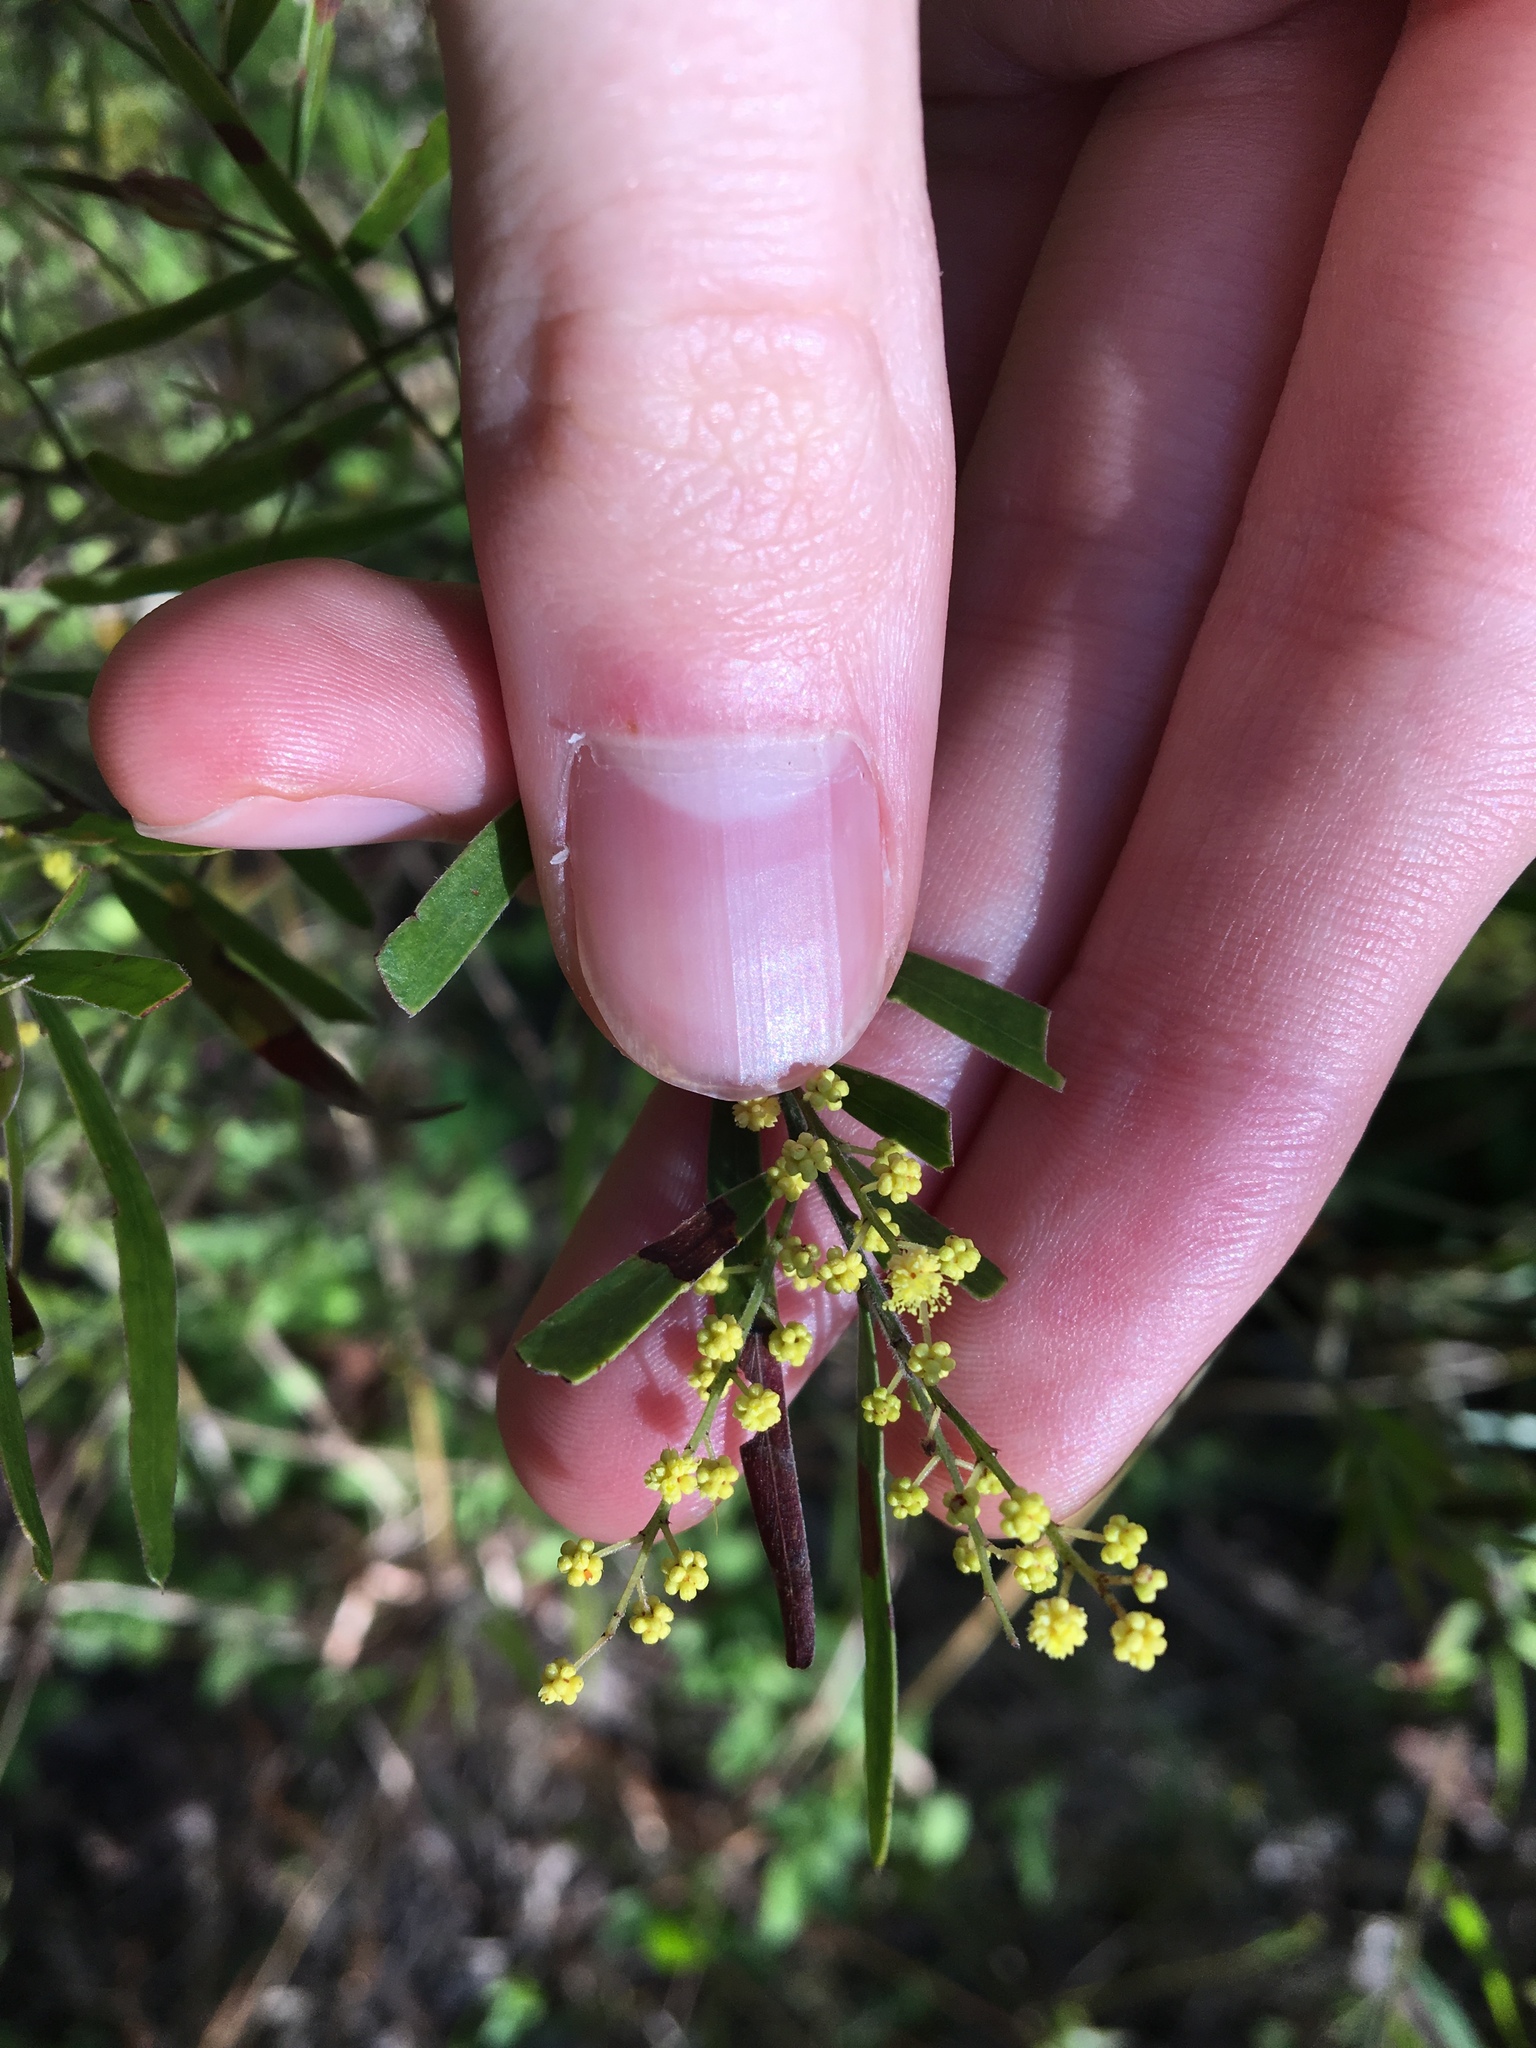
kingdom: Plantae
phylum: Tracheophyta
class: Magnoliopsida
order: Fabales
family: Fabaceae
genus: Acacia
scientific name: Acacia fimbriata
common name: Brisbane golden wattle
